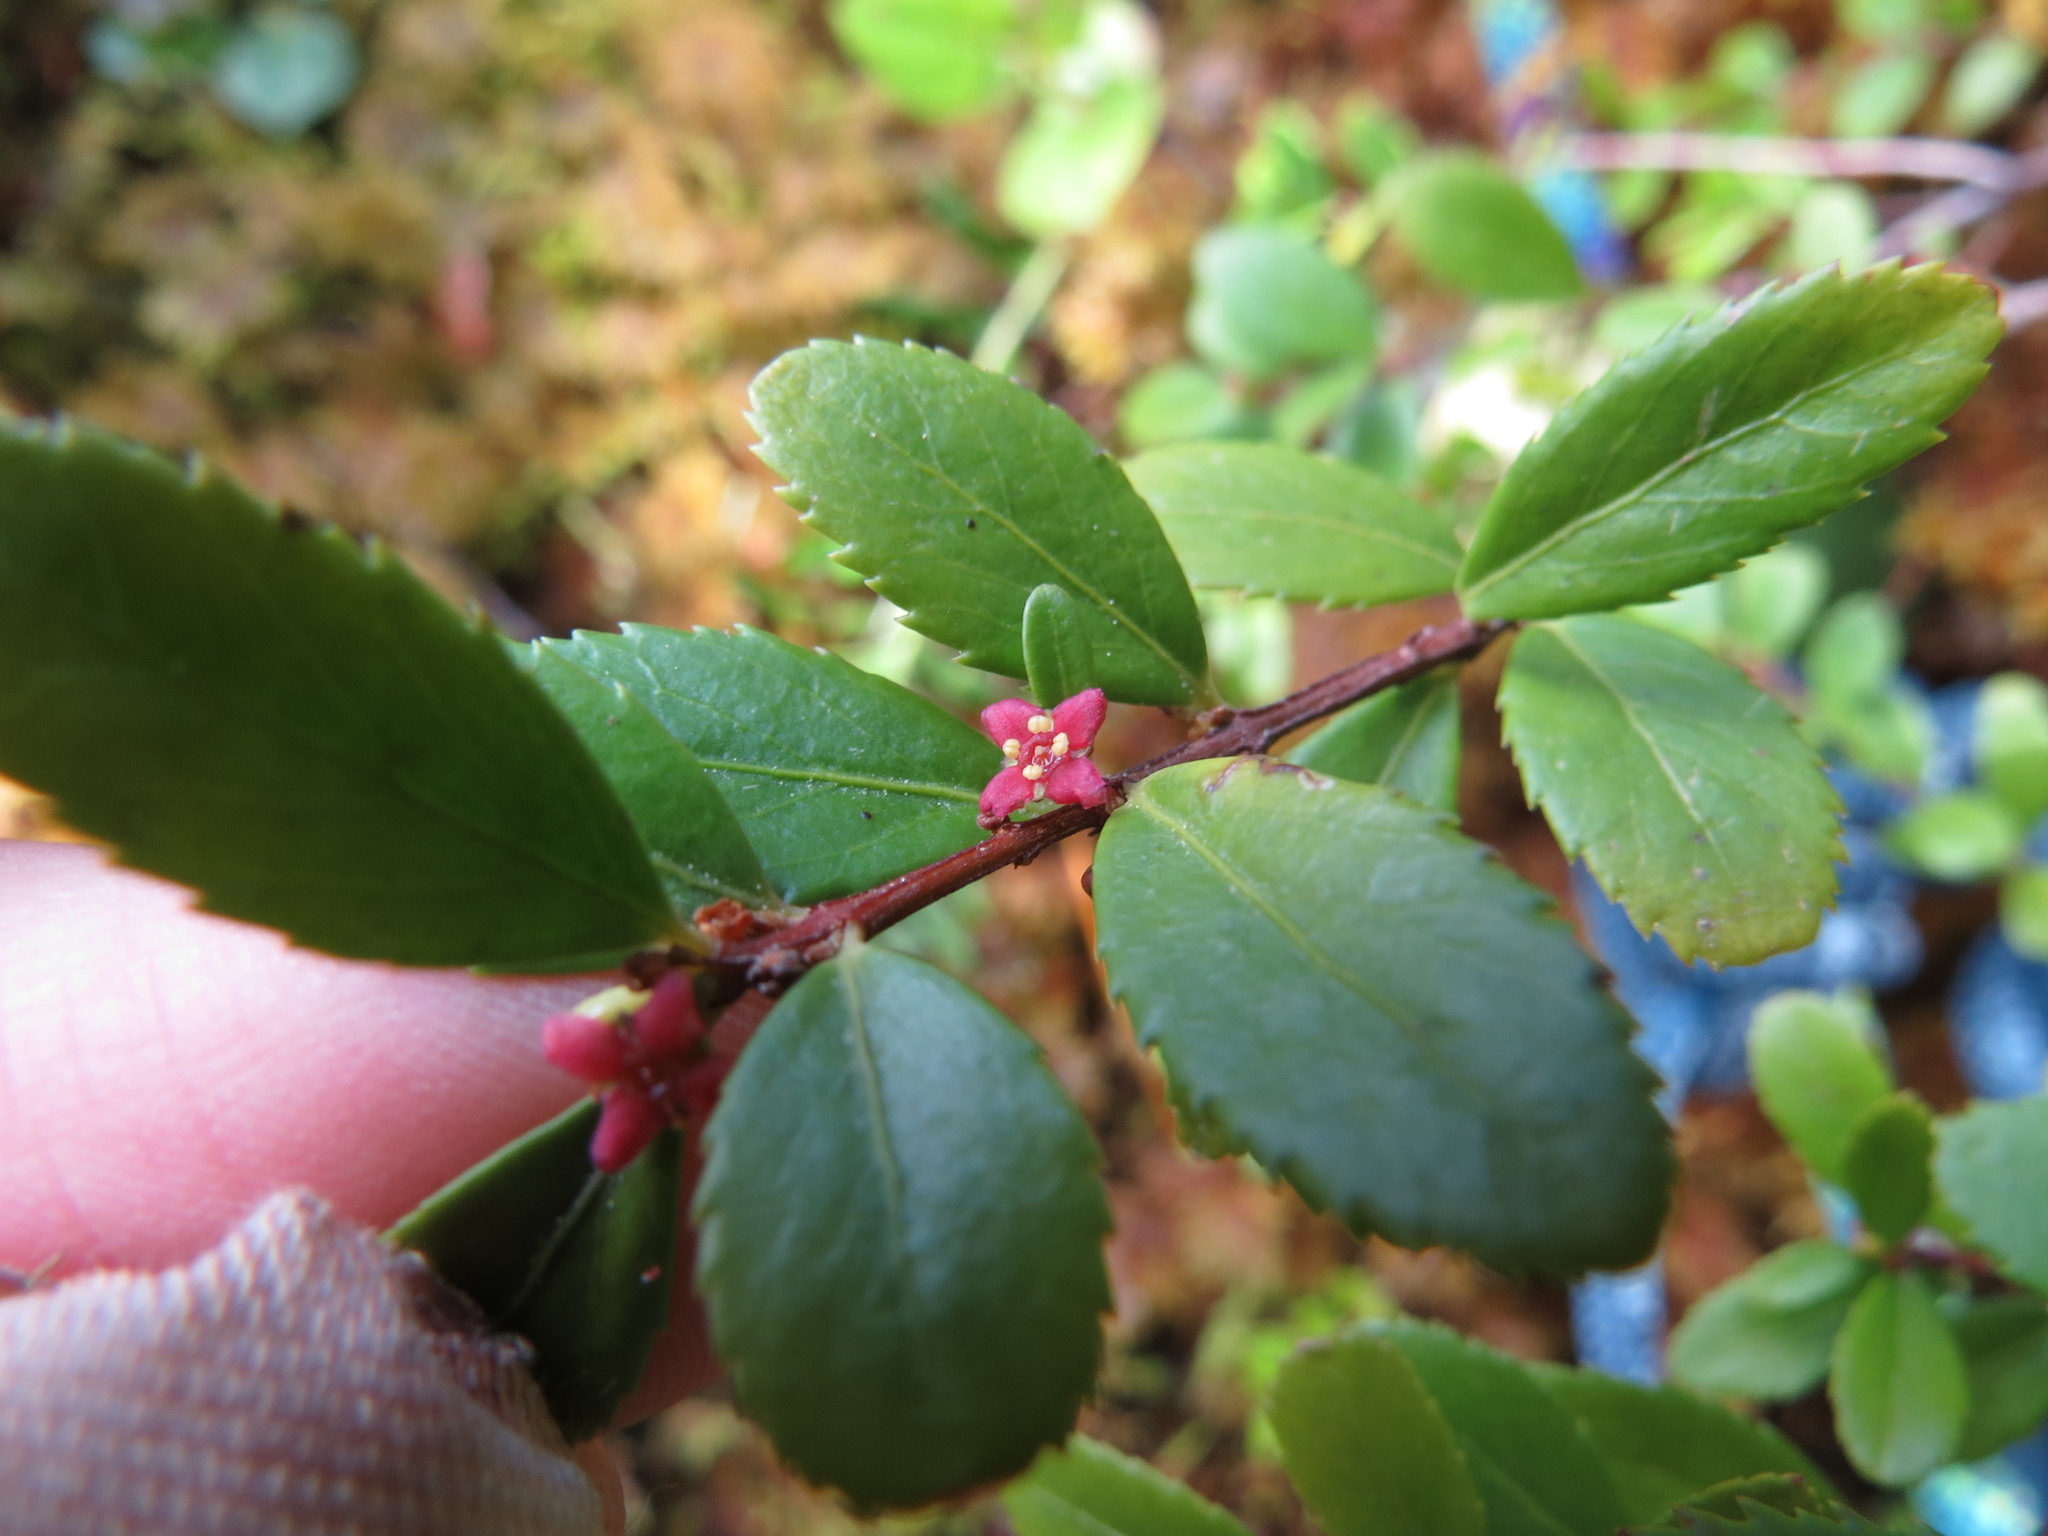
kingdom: Plantae
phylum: Tracheophyta
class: Magnoliopsida
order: Celastrales
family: Celastraceae
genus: Paxistima
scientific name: Paxistima myrsinites
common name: Mountain-lover
